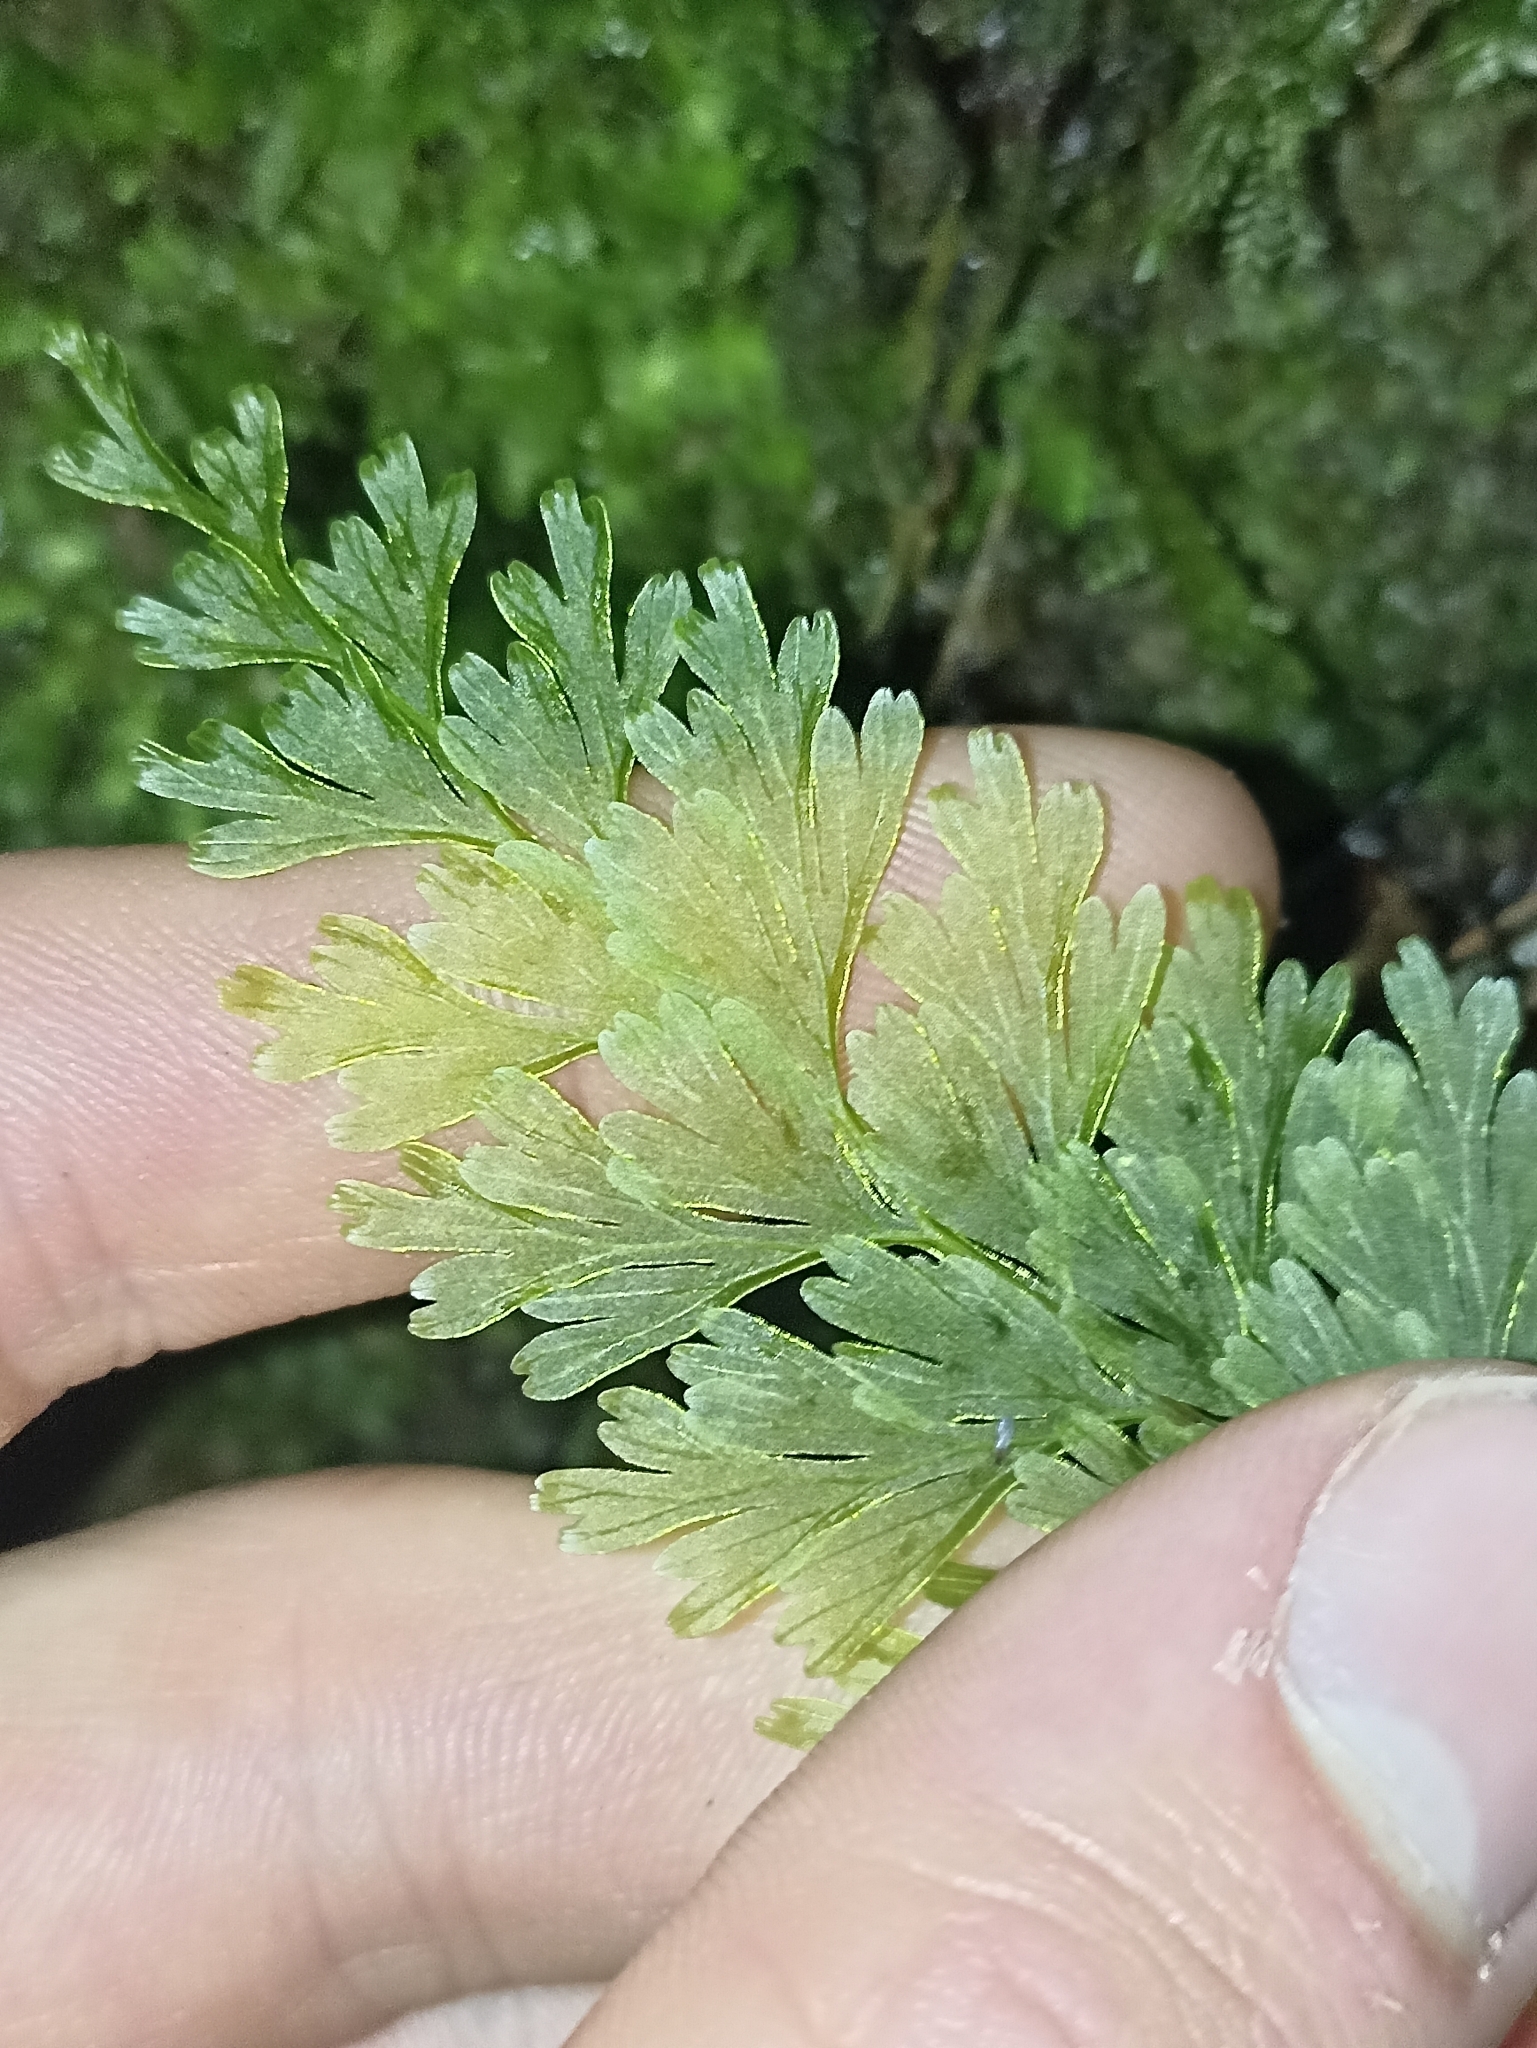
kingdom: Plantae
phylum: Tracheophyta
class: Polypodiopsida
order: Hymenophyllales
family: Hymenophyllaceae
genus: Hymenophyllum
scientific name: Hymenophyllum demissum
